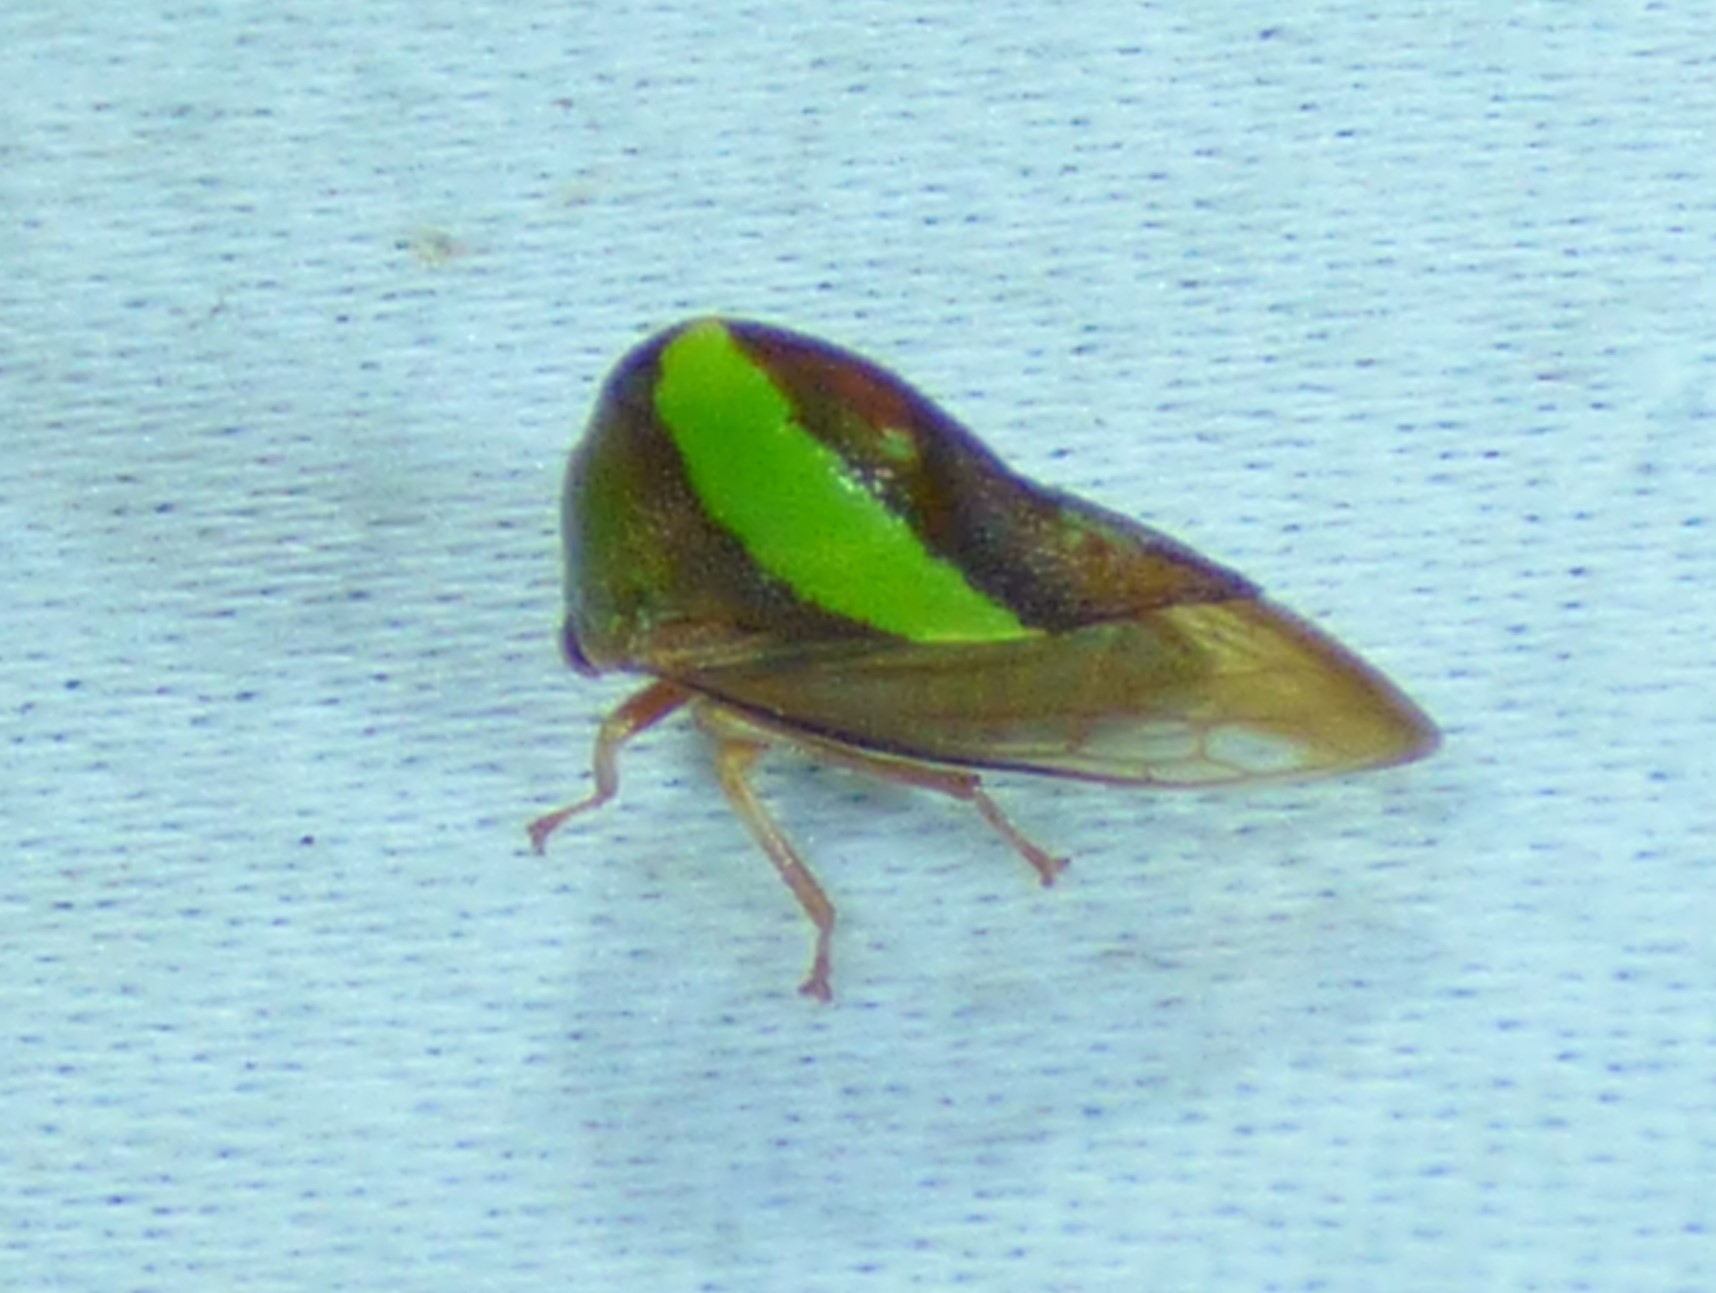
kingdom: Animalia
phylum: Arthropoda
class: Insecta
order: Hemiptera
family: Membracidae
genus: Smilia
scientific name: Smilia camelus
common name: Camel treehopper
